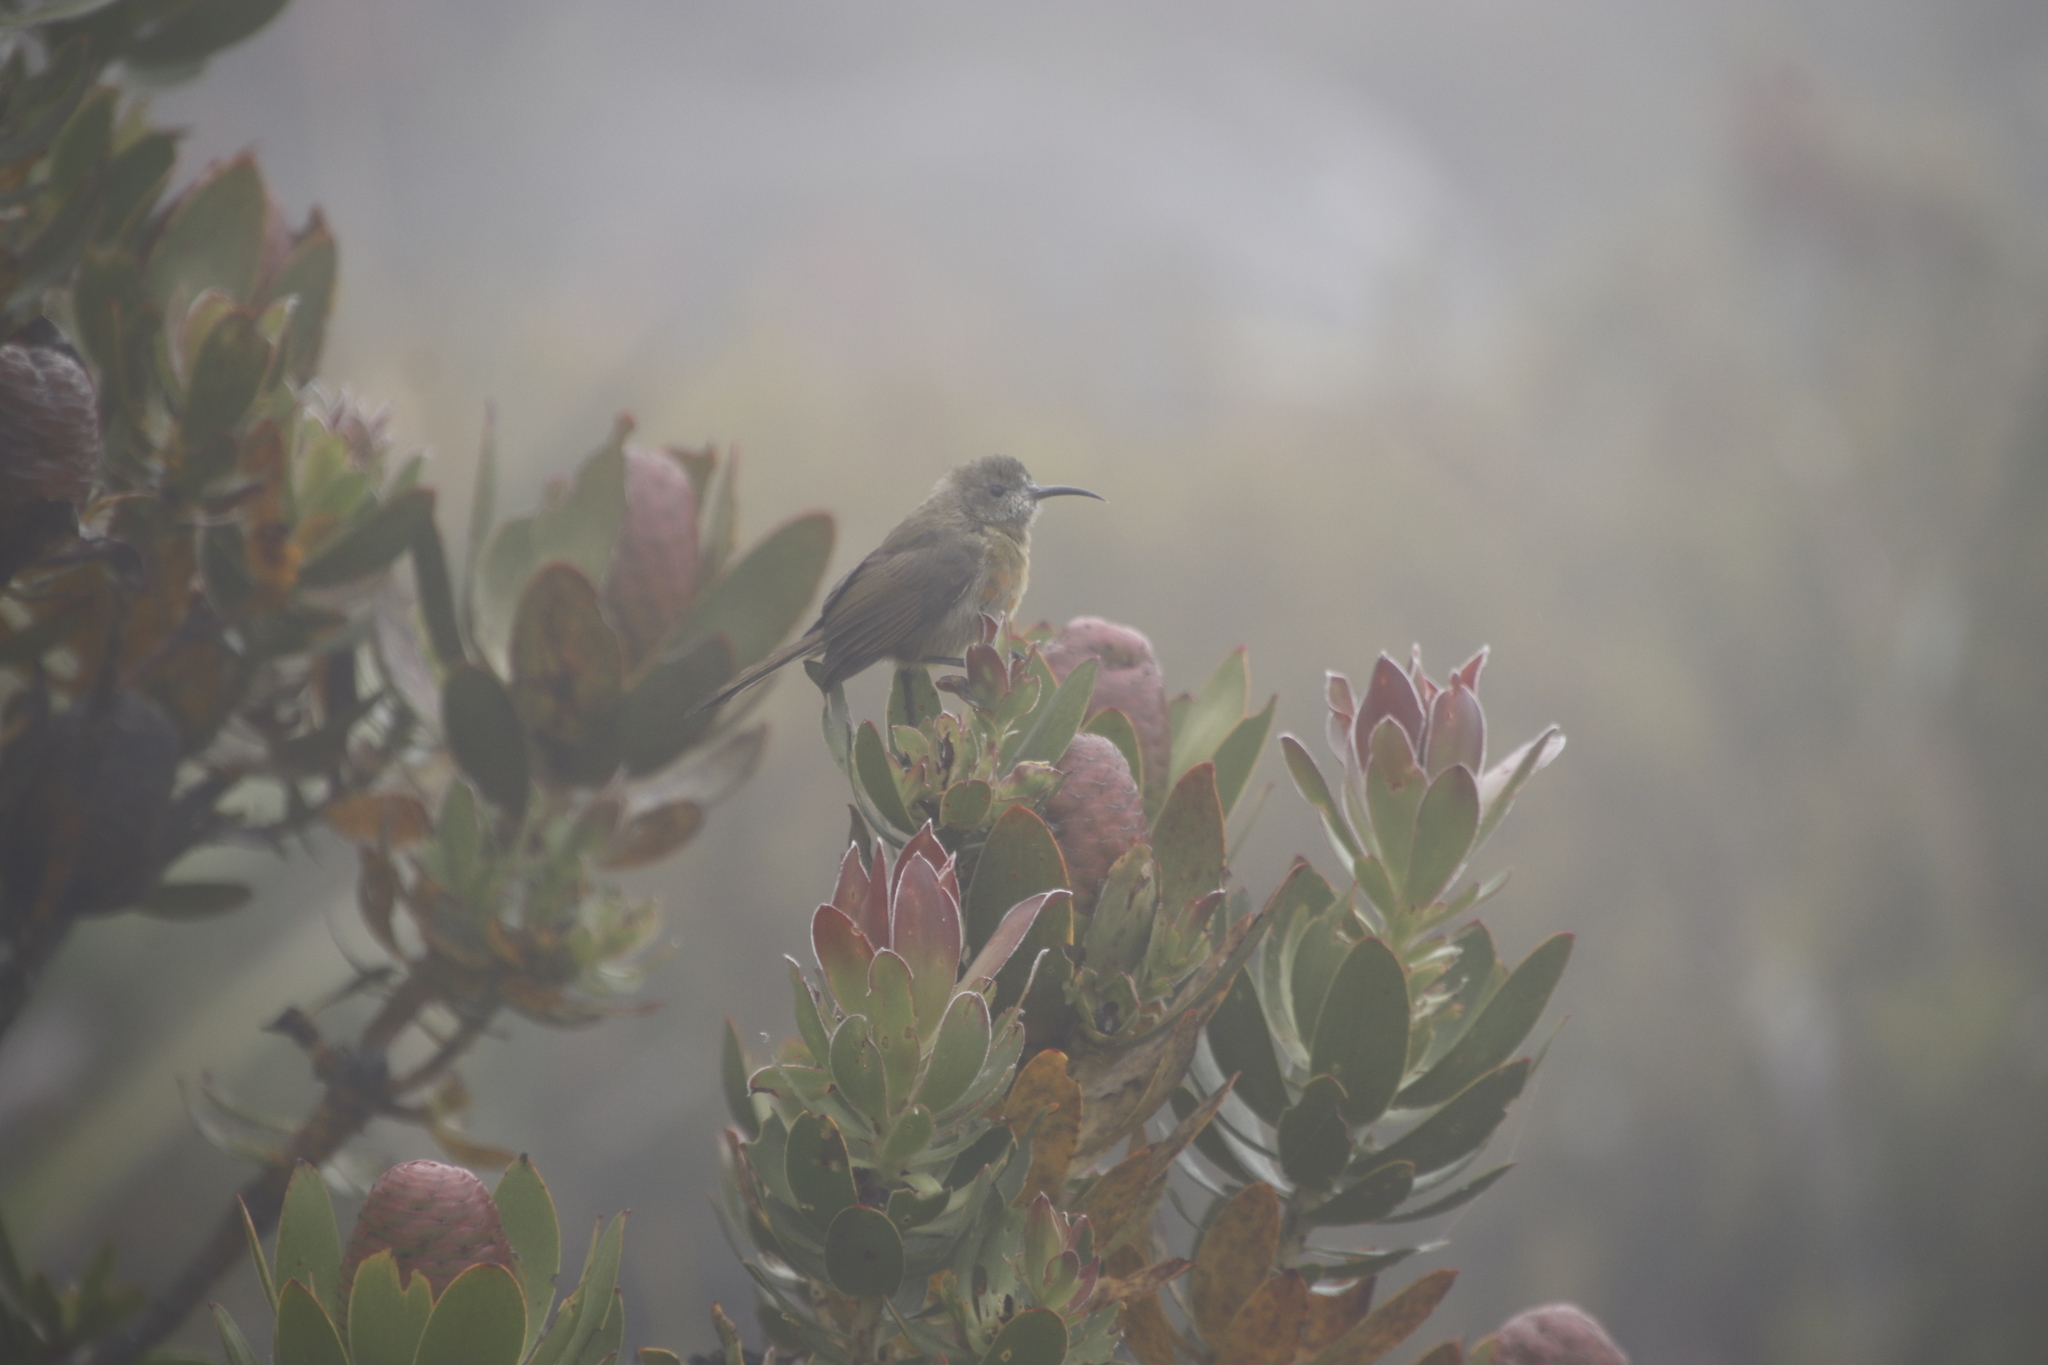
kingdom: Animalia
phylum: Chordata
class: Aves
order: Passeriformes
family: Nectariniidae
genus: Anthobaphes
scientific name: Anthobaphes violacea
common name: Orange-breasted sunbird
